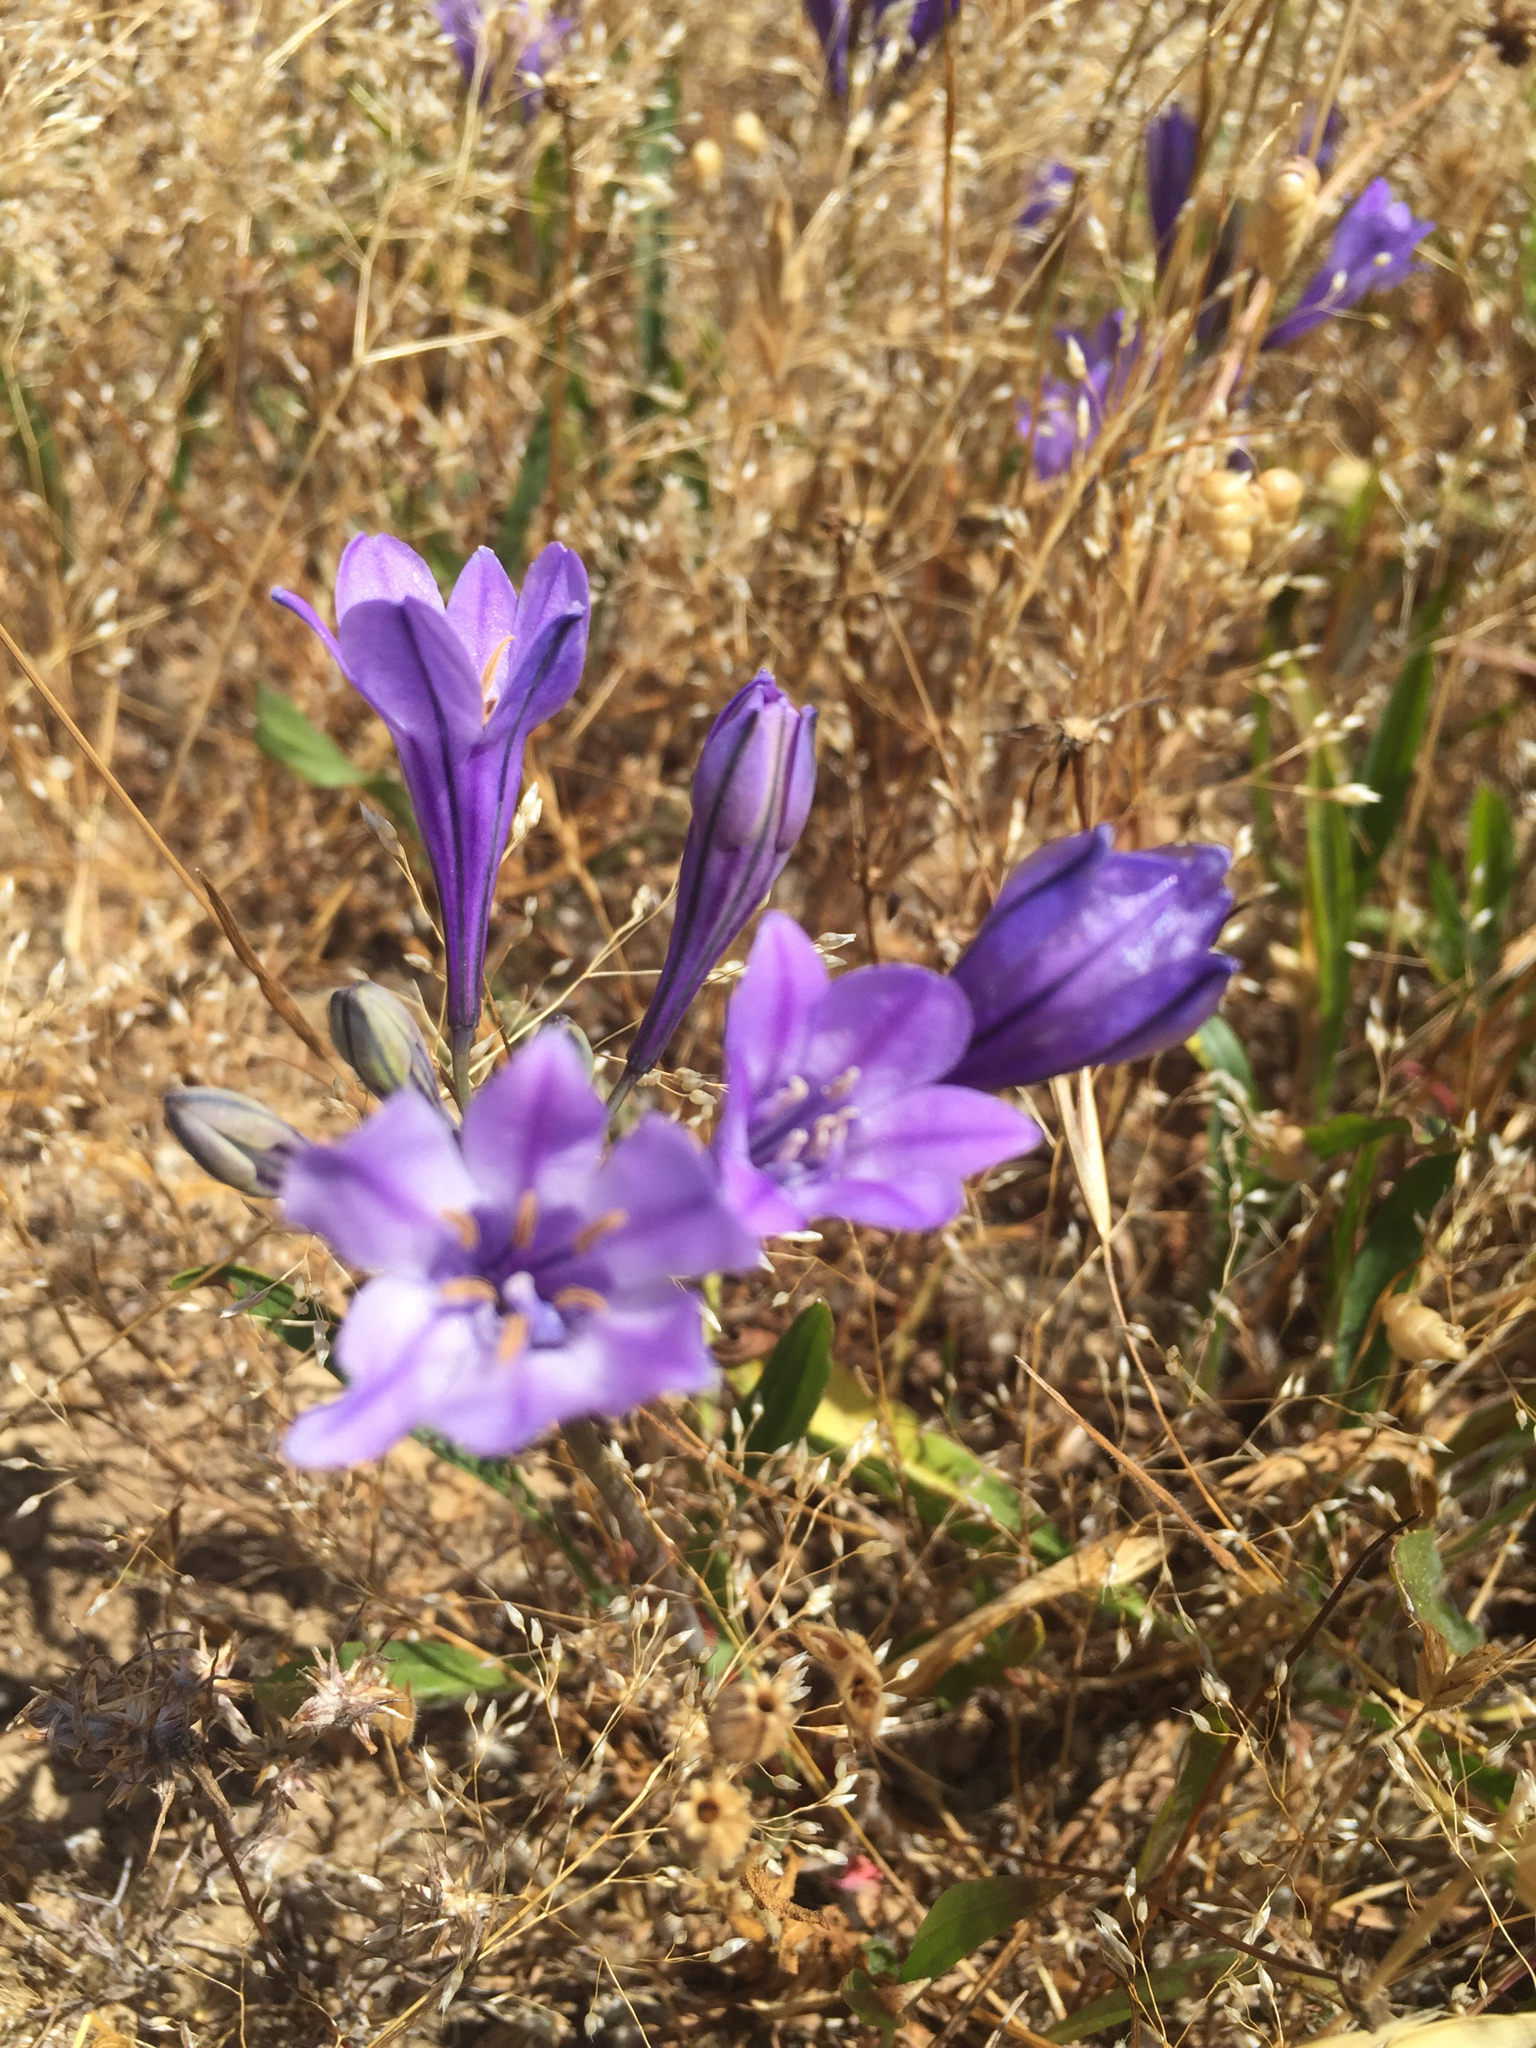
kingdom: Plantae
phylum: Tracheophyta
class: Liliopsida
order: Asparagales
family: Asparagaceae
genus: Triteleia
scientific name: Triteleia laxa
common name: Triplet-lily
